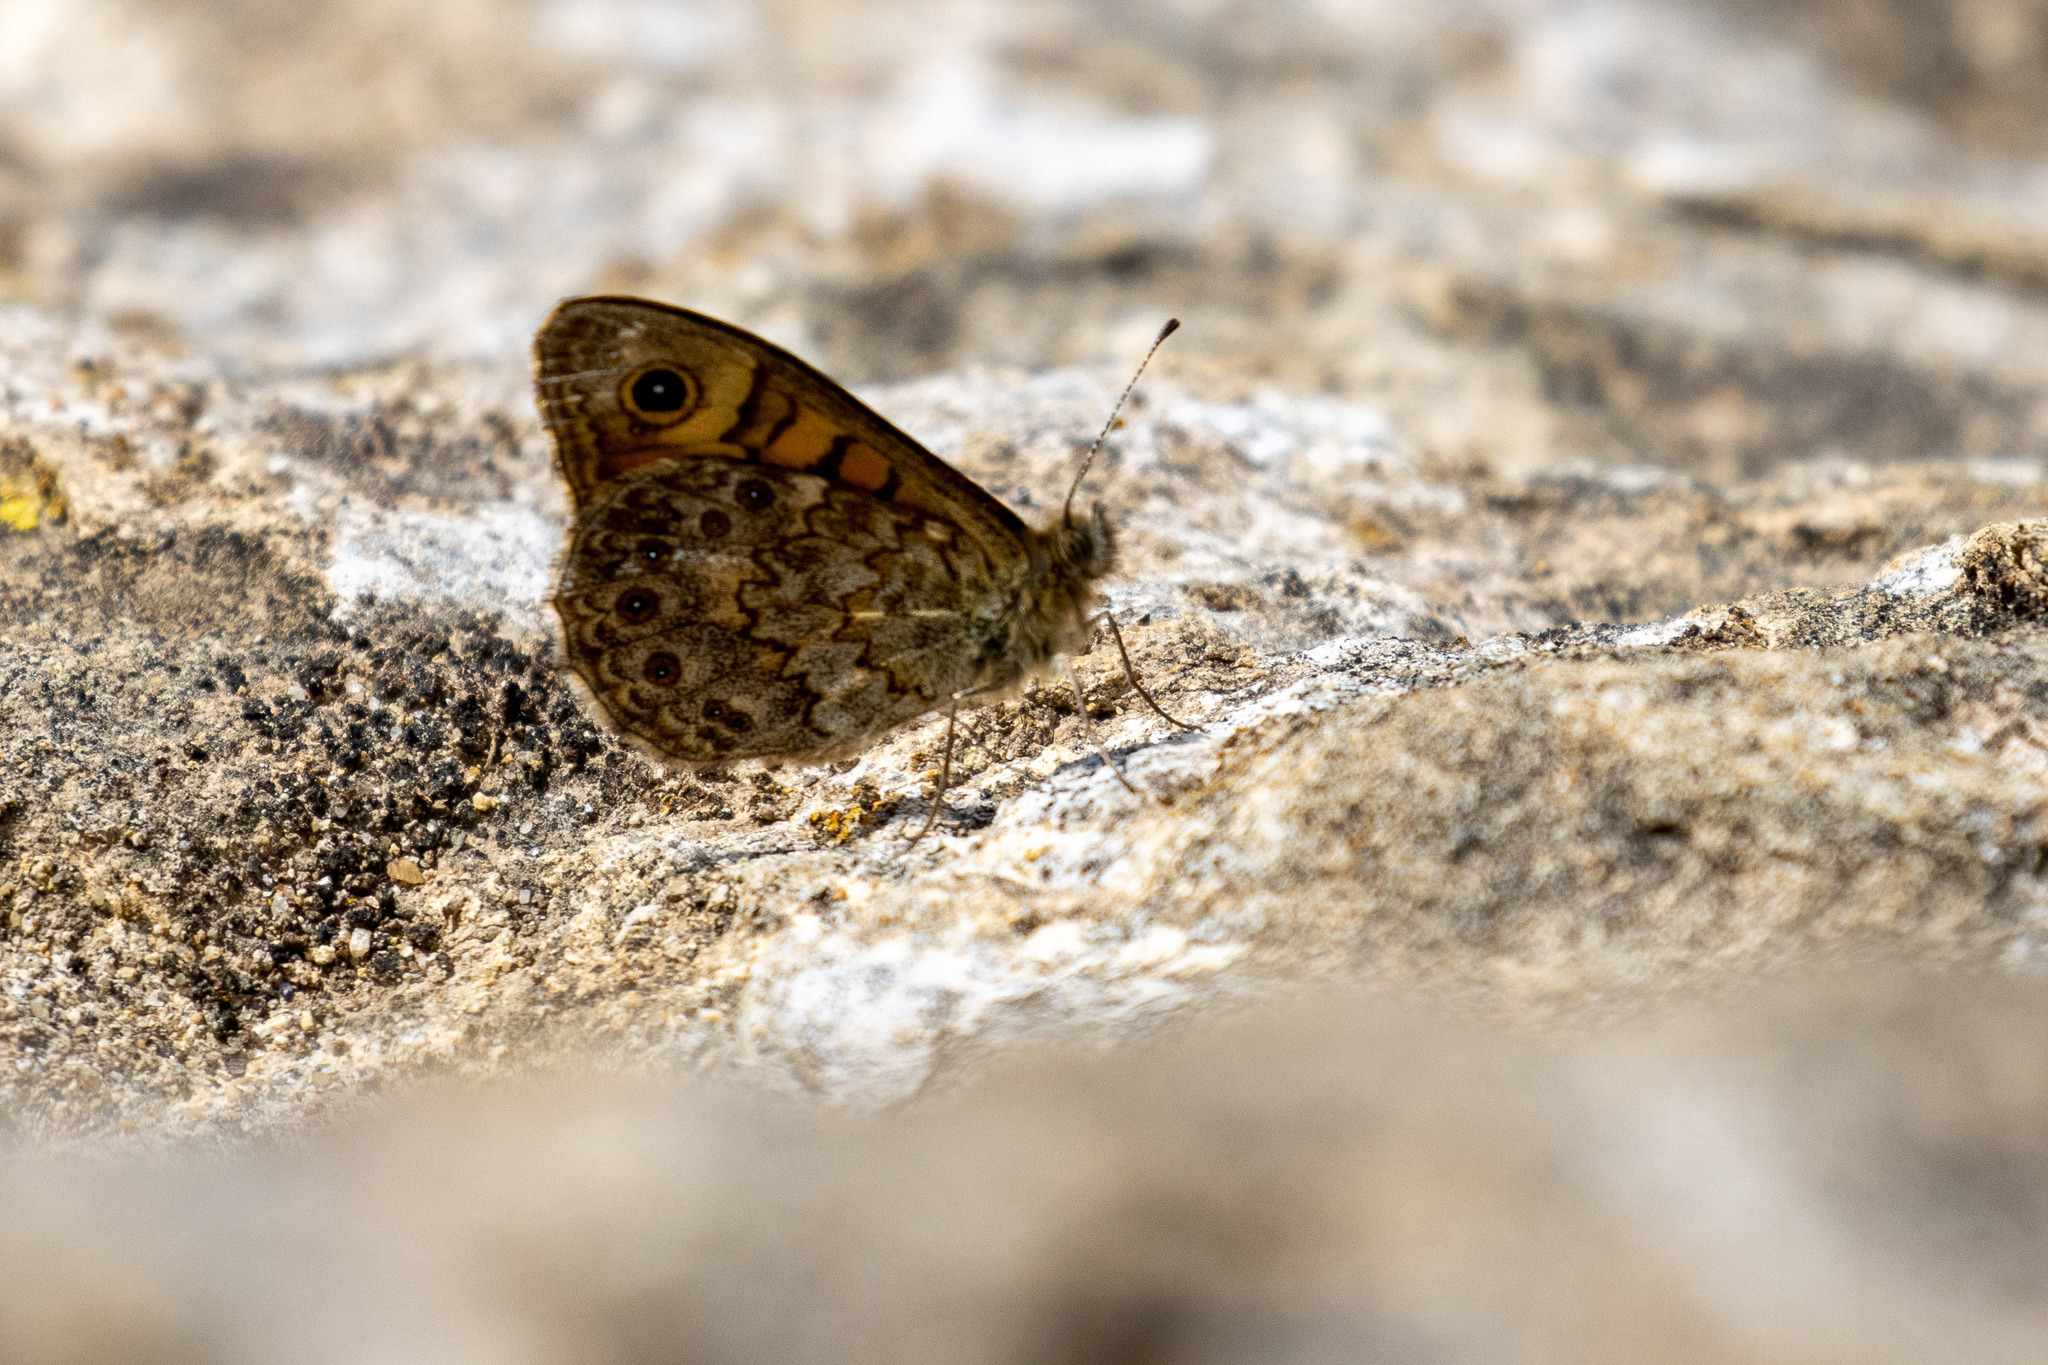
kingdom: Animalia
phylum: Arthropoda
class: Insecta
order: Lepidoptera
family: Nymphalidae
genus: Pararge
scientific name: Pararge Lasiommata megera
